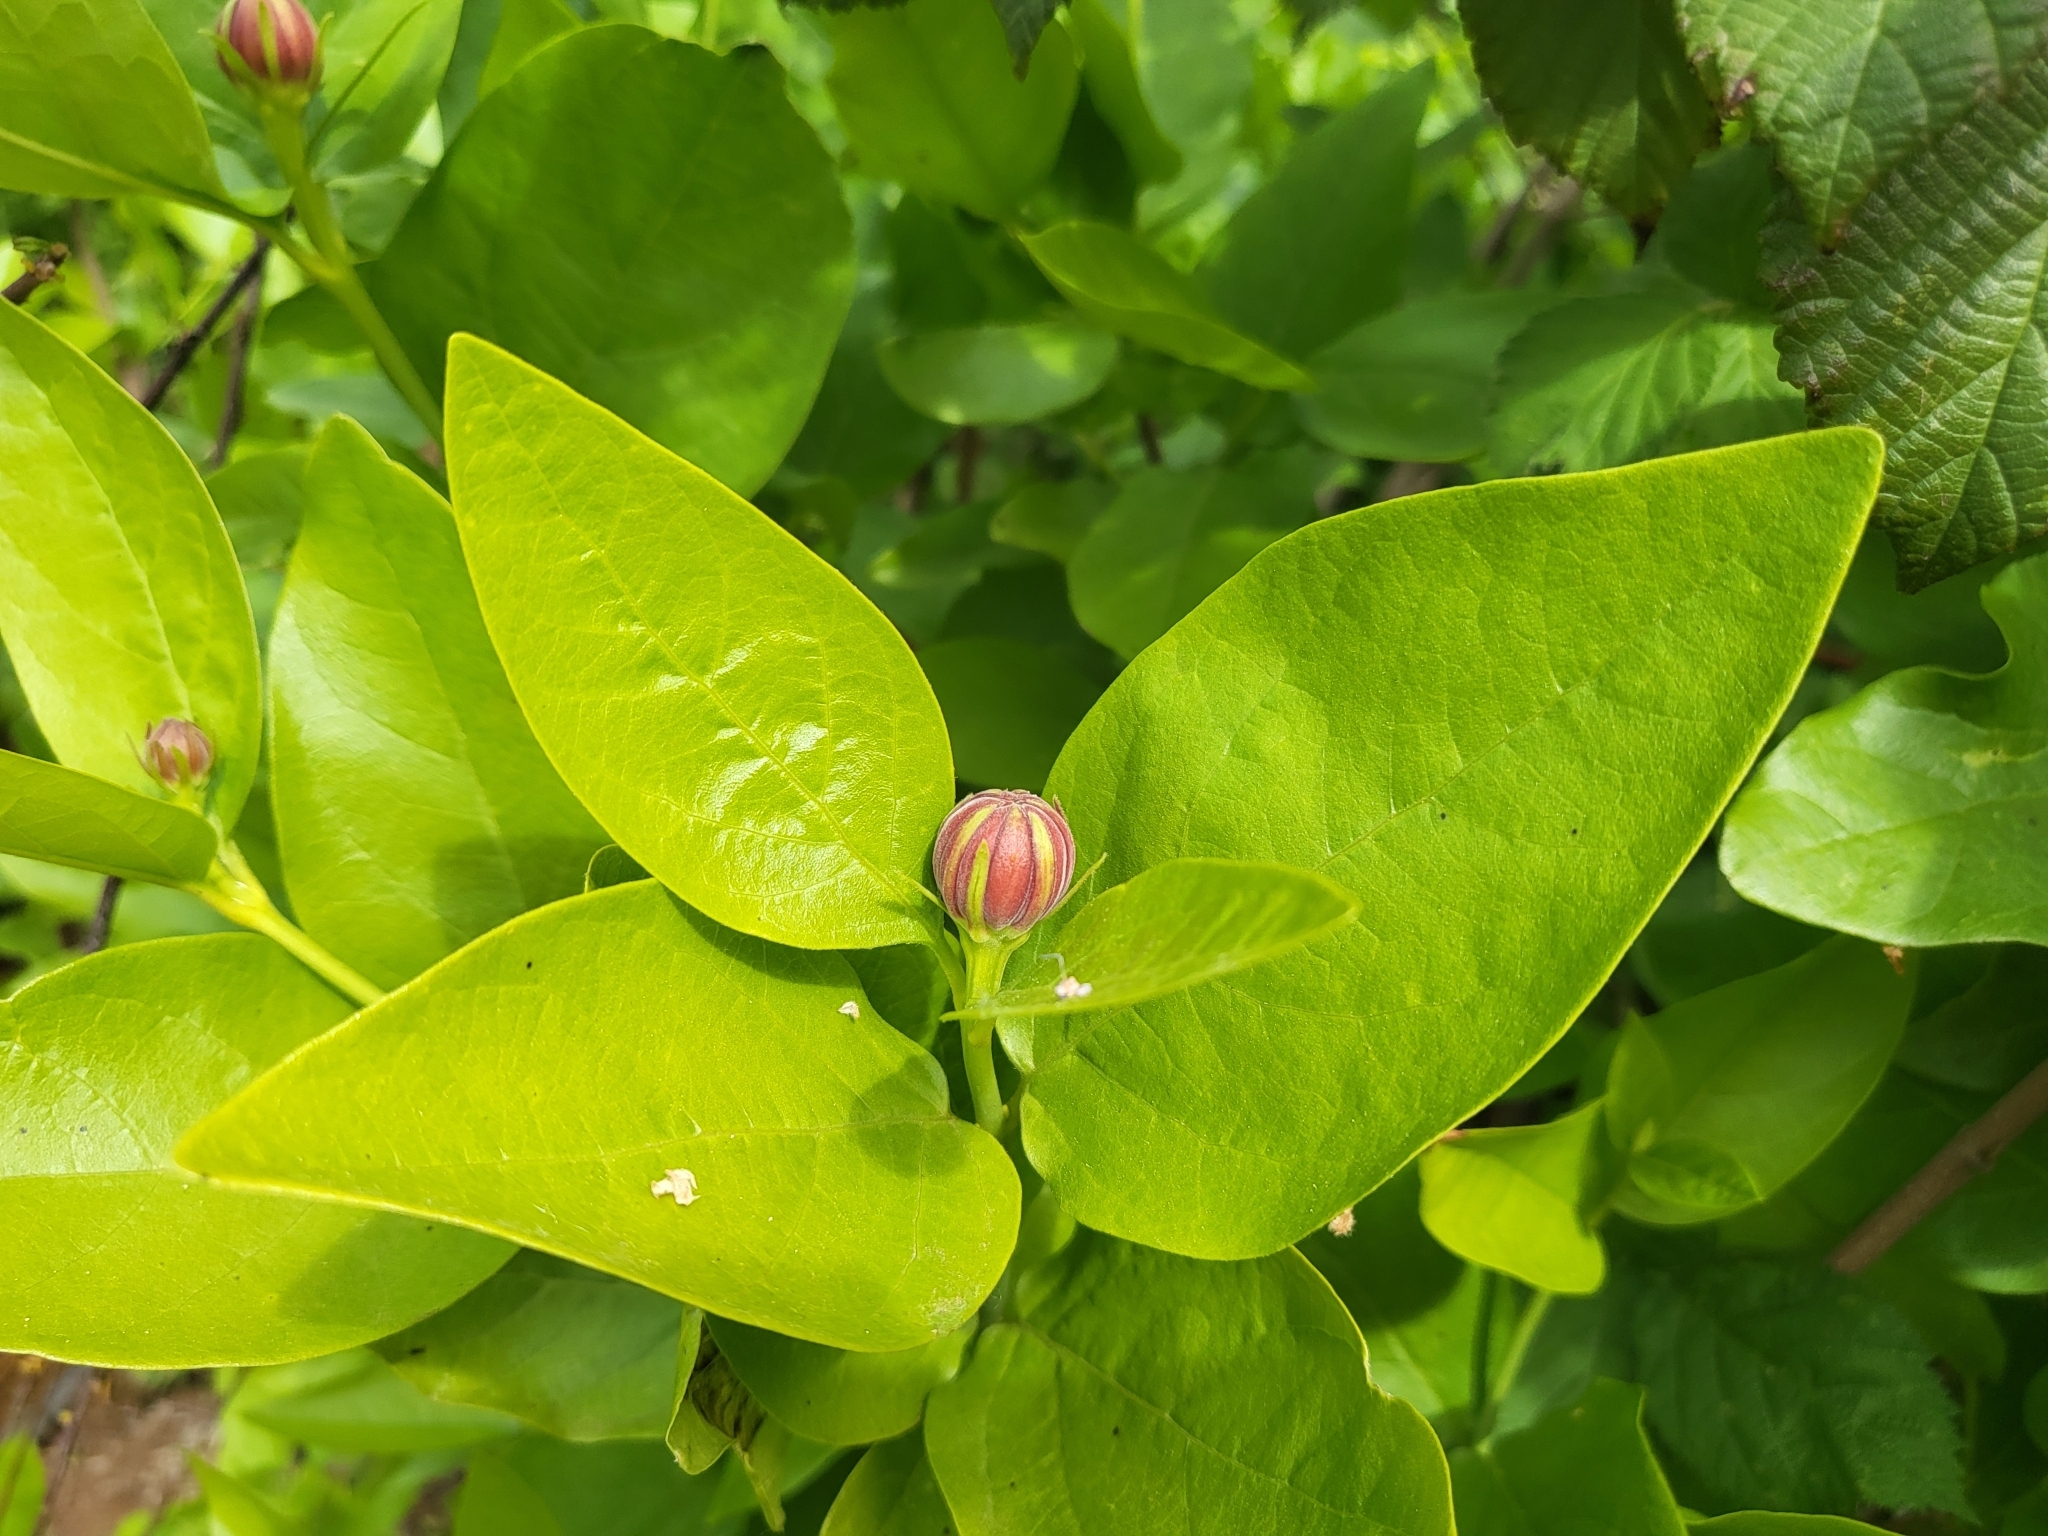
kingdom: Plantae
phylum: Tracheophyta
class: Magnoliopsida
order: Laurales
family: Calycanthaceae
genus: Calycanthus
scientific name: Calycanthus occidentalis
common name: California spicebush
